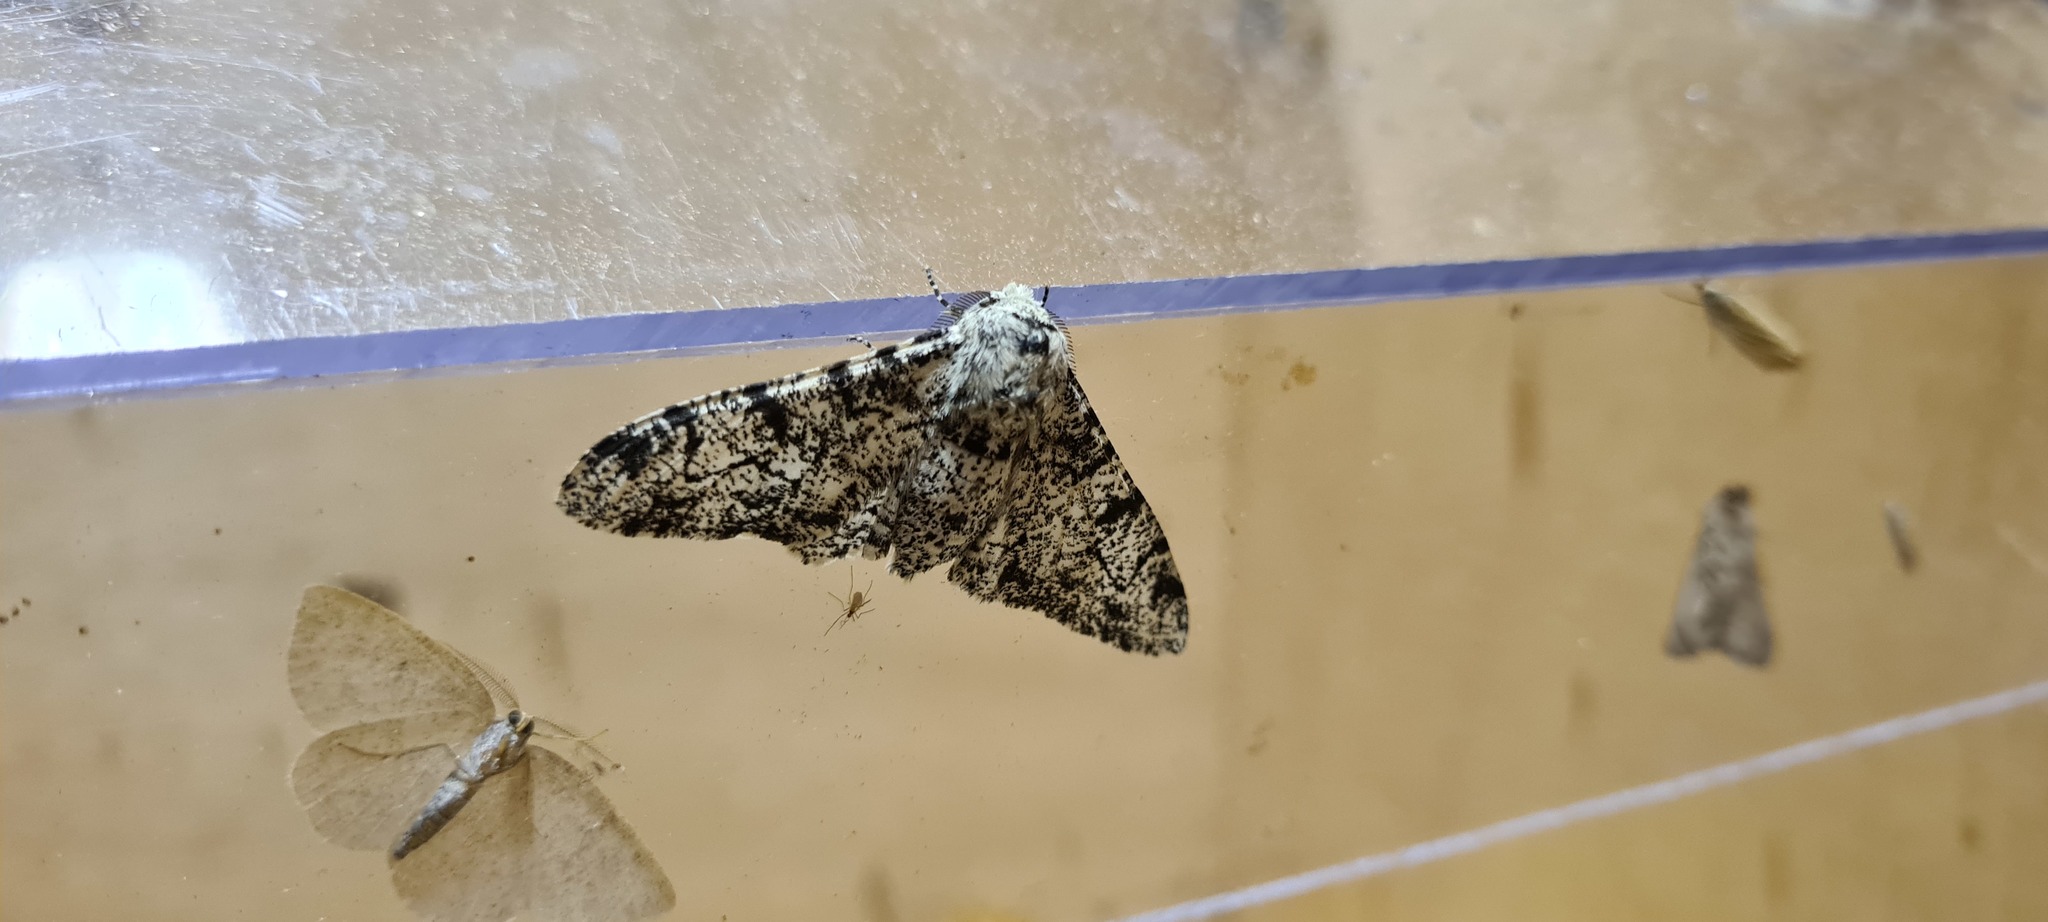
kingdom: Animalia
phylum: Arthropoda
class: Insecta
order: Lepidoptera
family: Geometridae
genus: Biston
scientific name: Biston betularia
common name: Peppered moth
